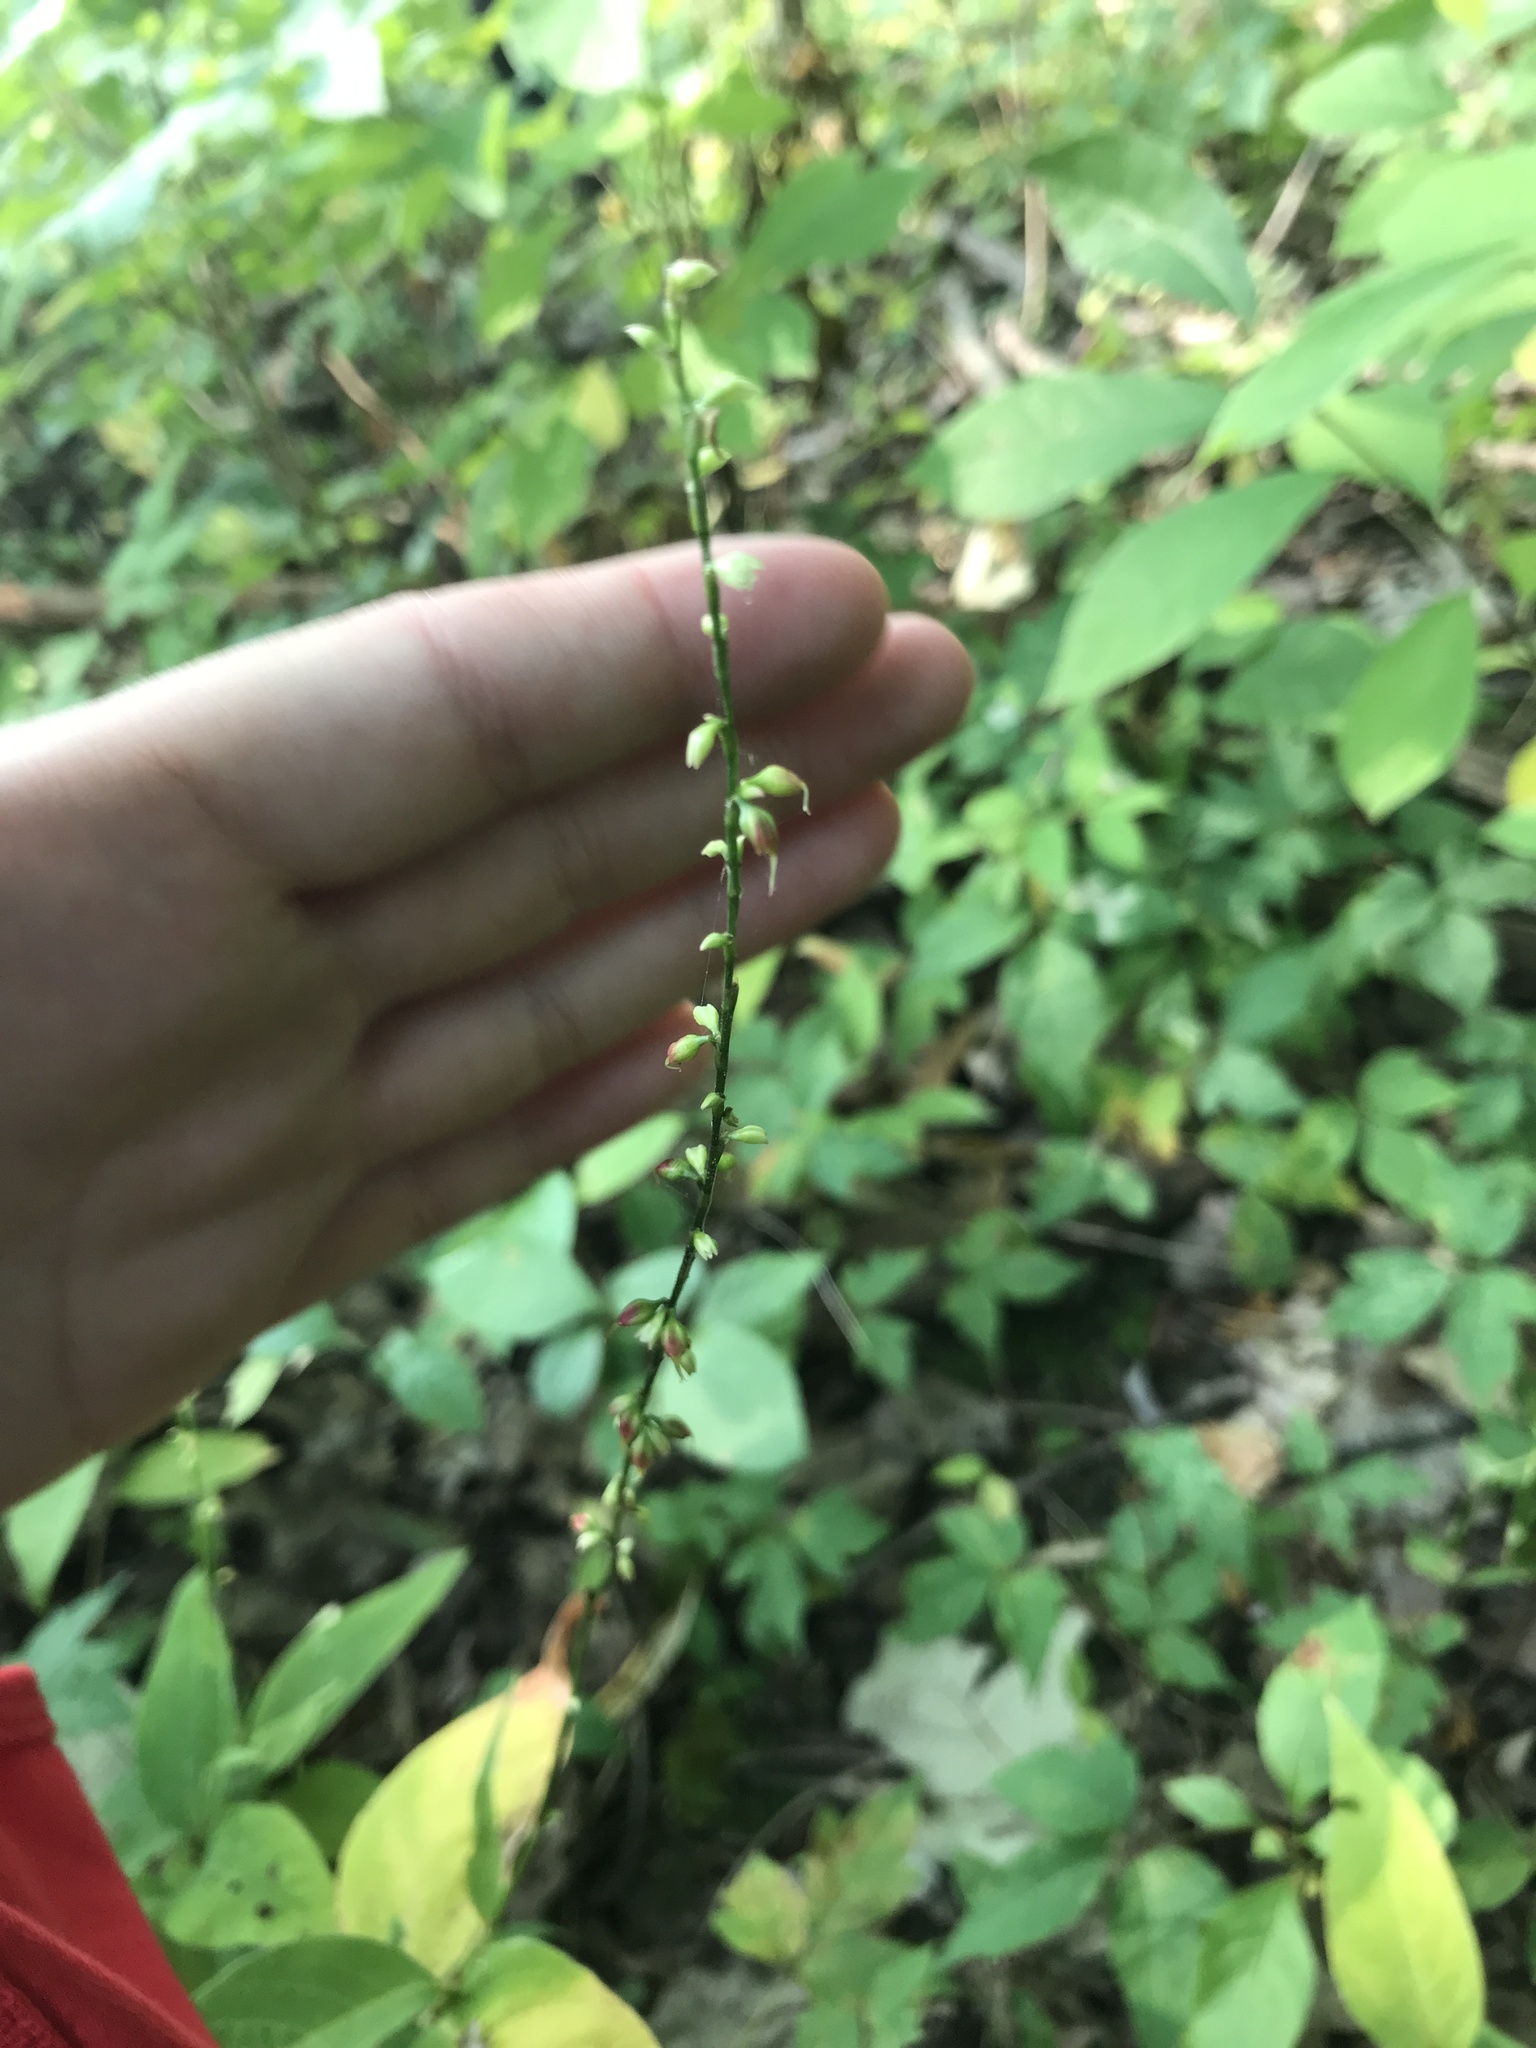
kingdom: Plantae
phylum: Tracheophyta
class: Magnoliopsida
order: Caryophyllales
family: Polygonaceae
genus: Persicaria
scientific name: Persicaria virginiana
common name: Jumpseed
